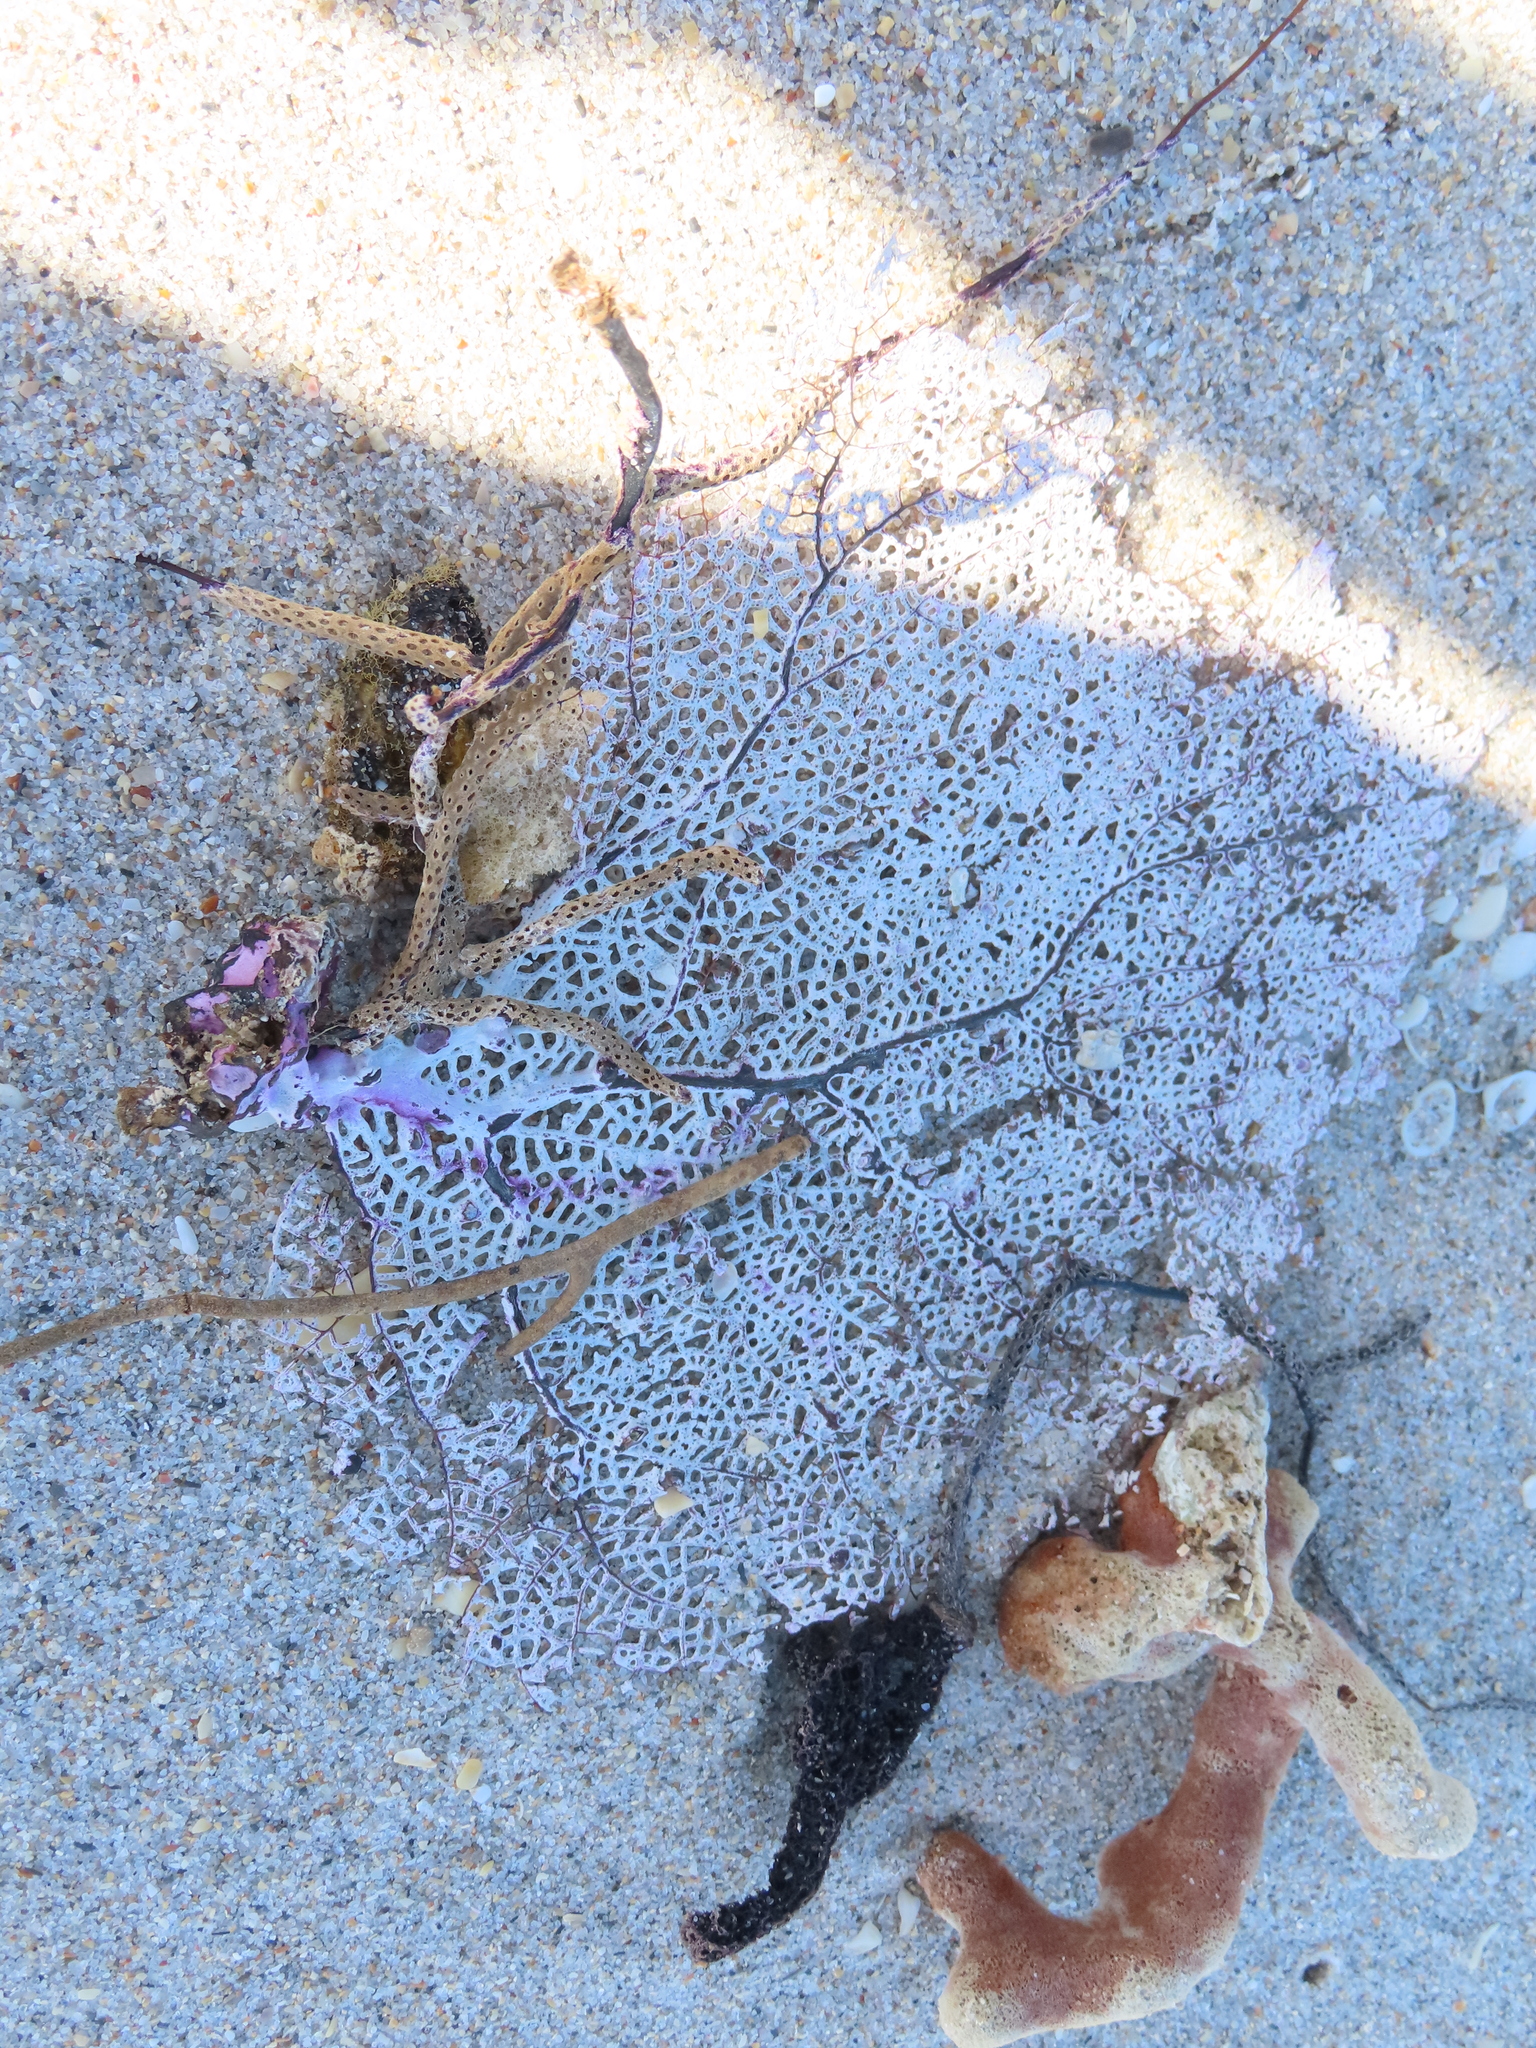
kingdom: Animalia
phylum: Cnidaria
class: Anthozoa
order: Malacalcyonacea
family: Gorgoniidae
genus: Gorgonia
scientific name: Gorgonia ventalina
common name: Common sea fan
